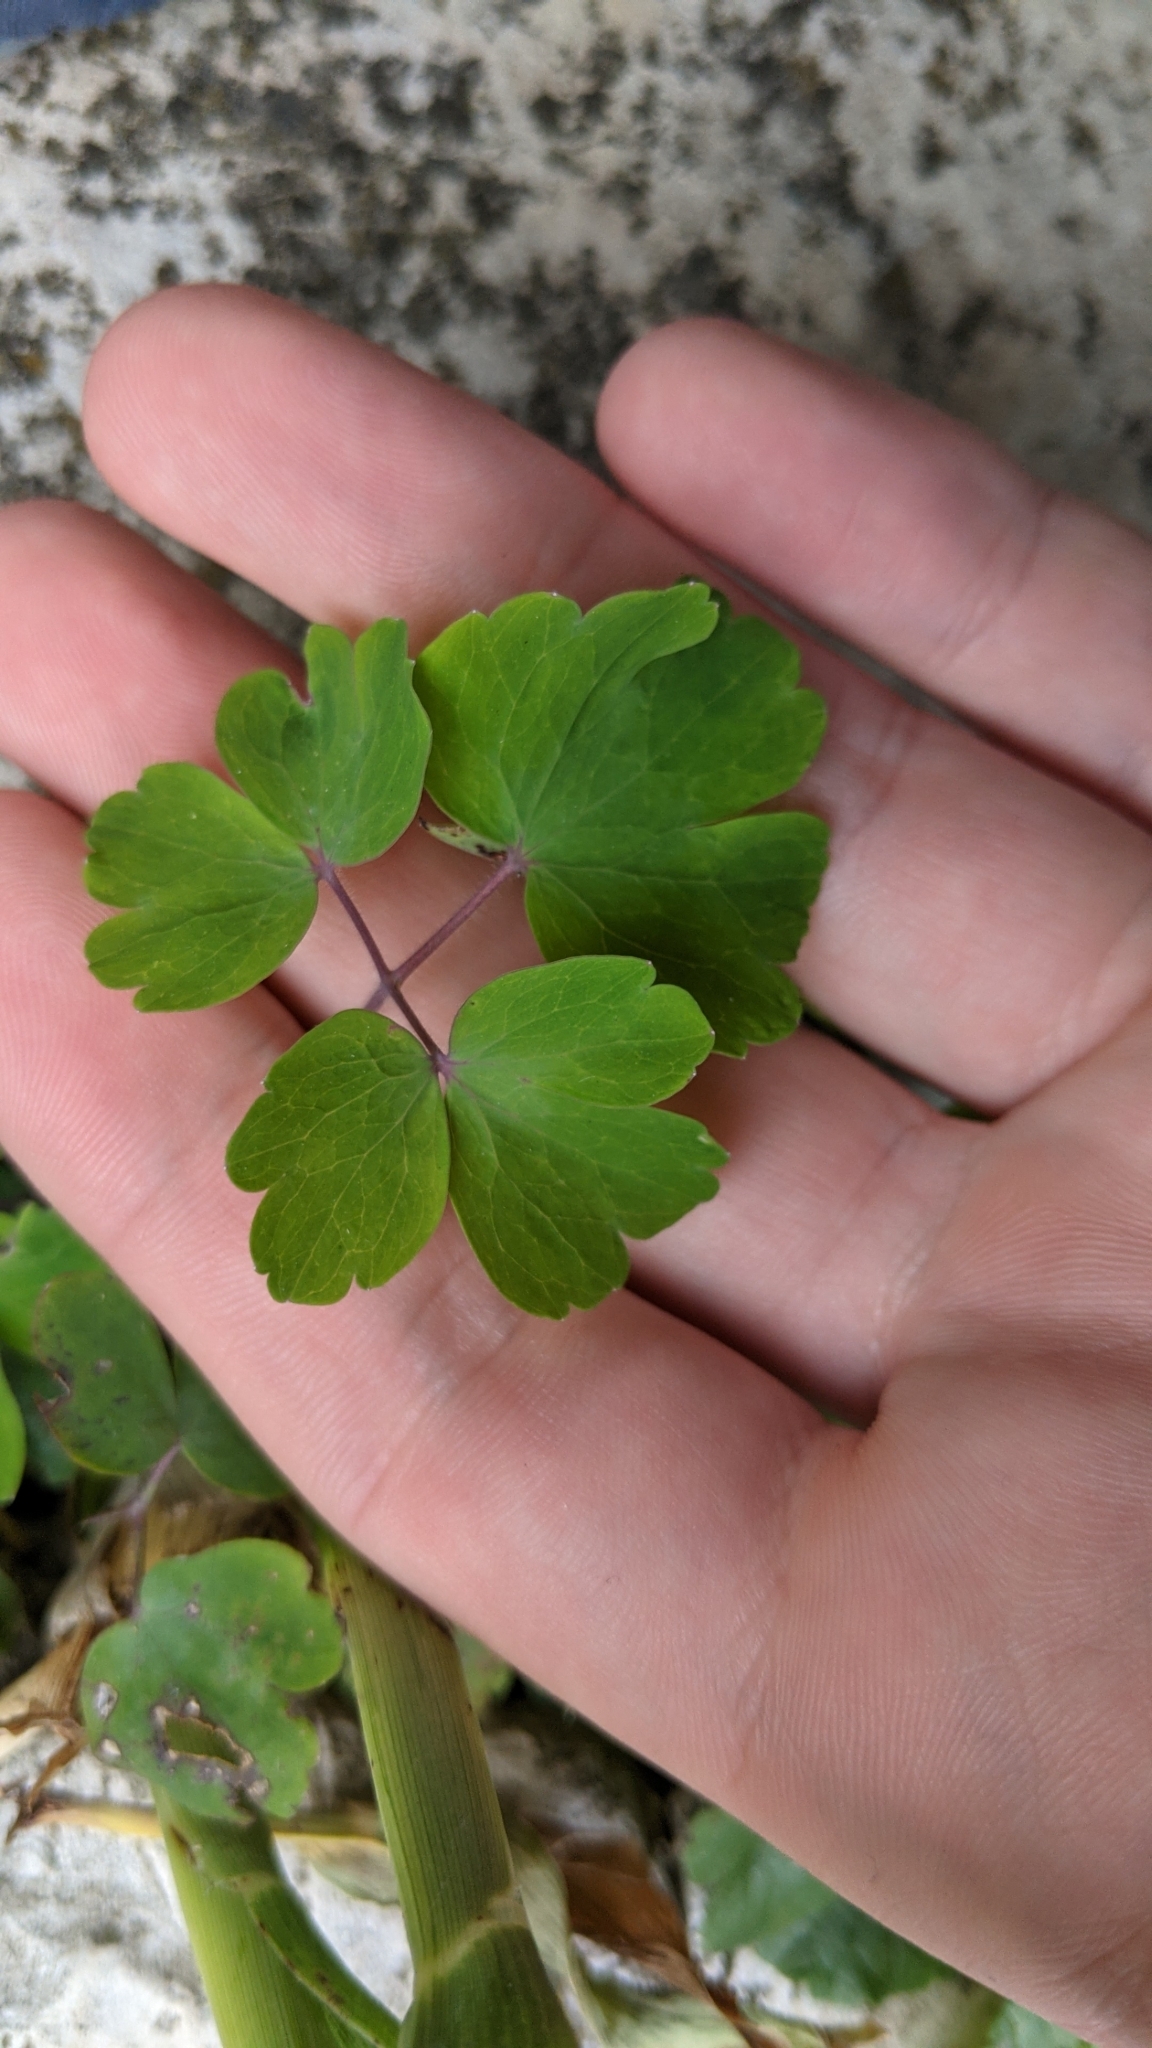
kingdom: Plantae
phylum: Tracheophyta
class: Magnoliopsida
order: Ranunculales
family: Ranunculaceae
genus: Aquilegia
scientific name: Aquilegia canadensis
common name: American columbine
